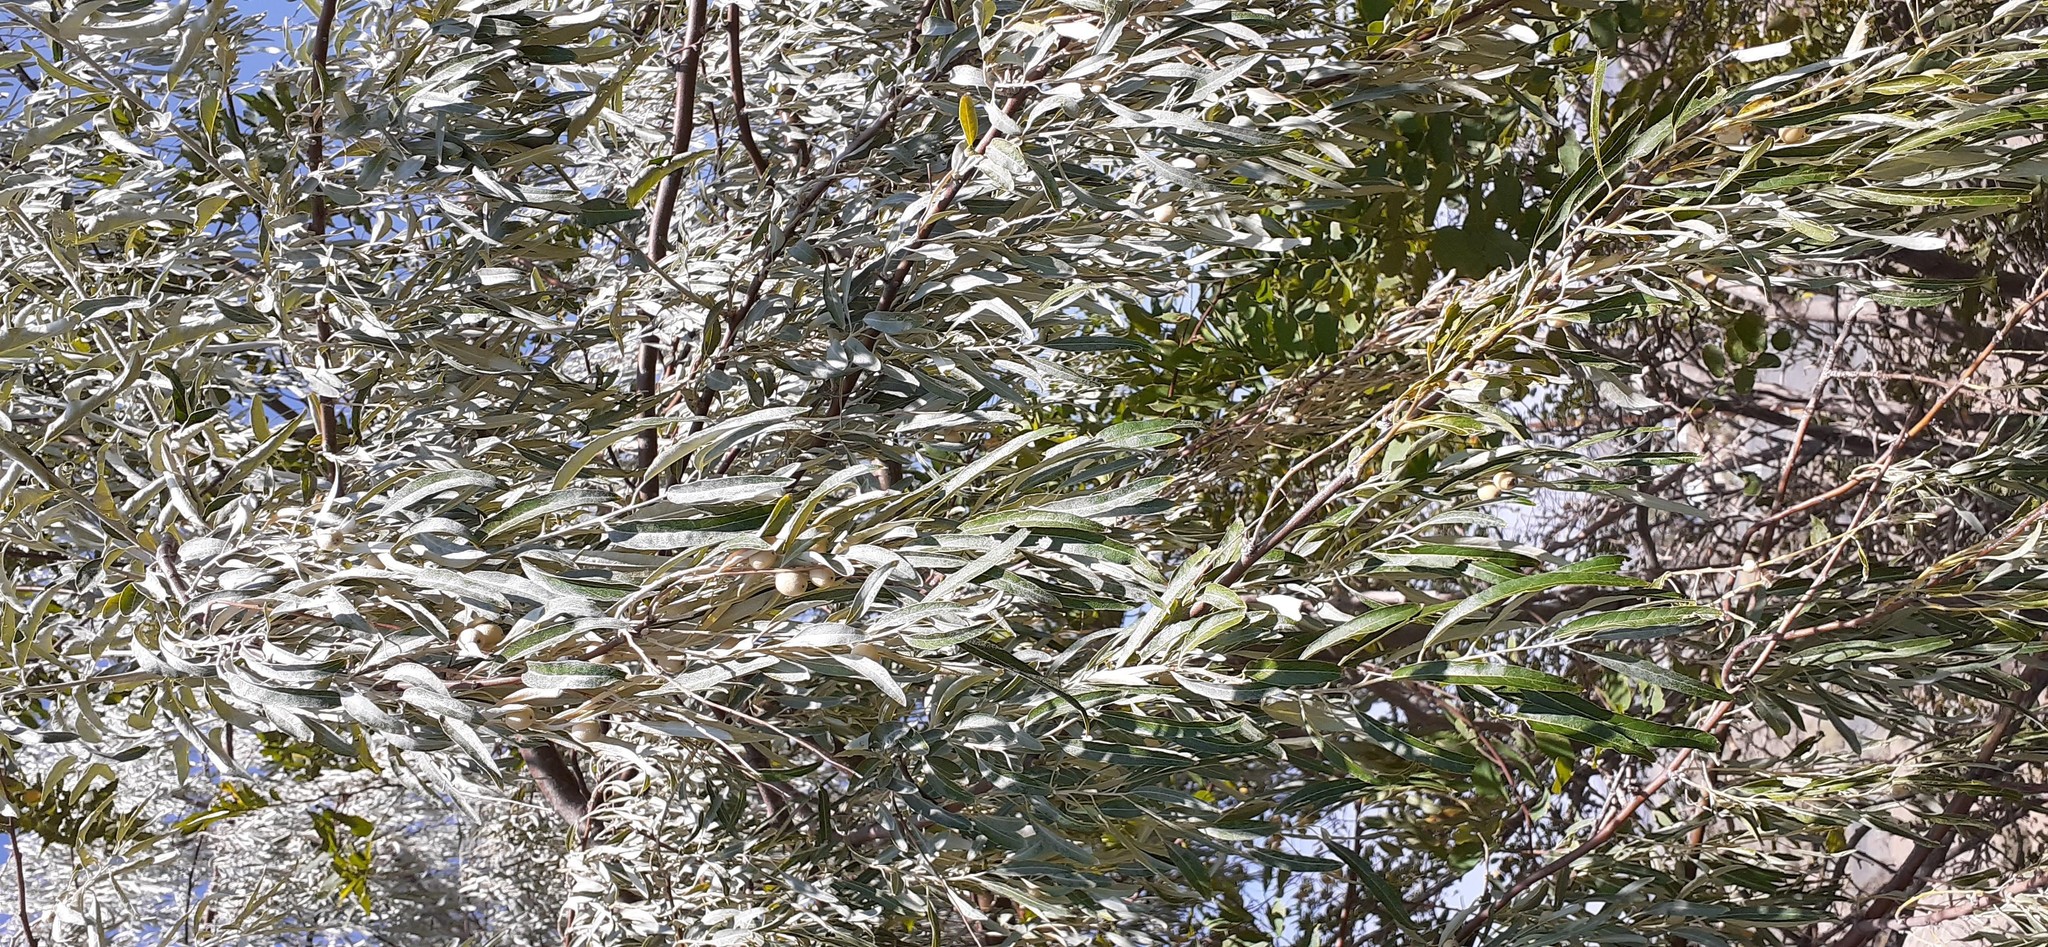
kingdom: Plantae
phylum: Tracheophyta
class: Magnoliopsida
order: Rosales
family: Elaeagnaceae
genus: Elaeagnus
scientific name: Elaeagnus angustifolia
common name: Russian olive
